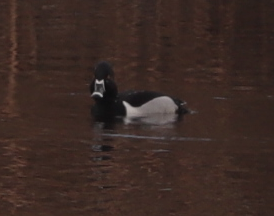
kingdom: Animalia
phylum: Chordata
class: Aves
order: Anseriformes
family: Anatidae
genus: Aythya
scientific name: Aythya collaris
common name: Ring-necked duck
